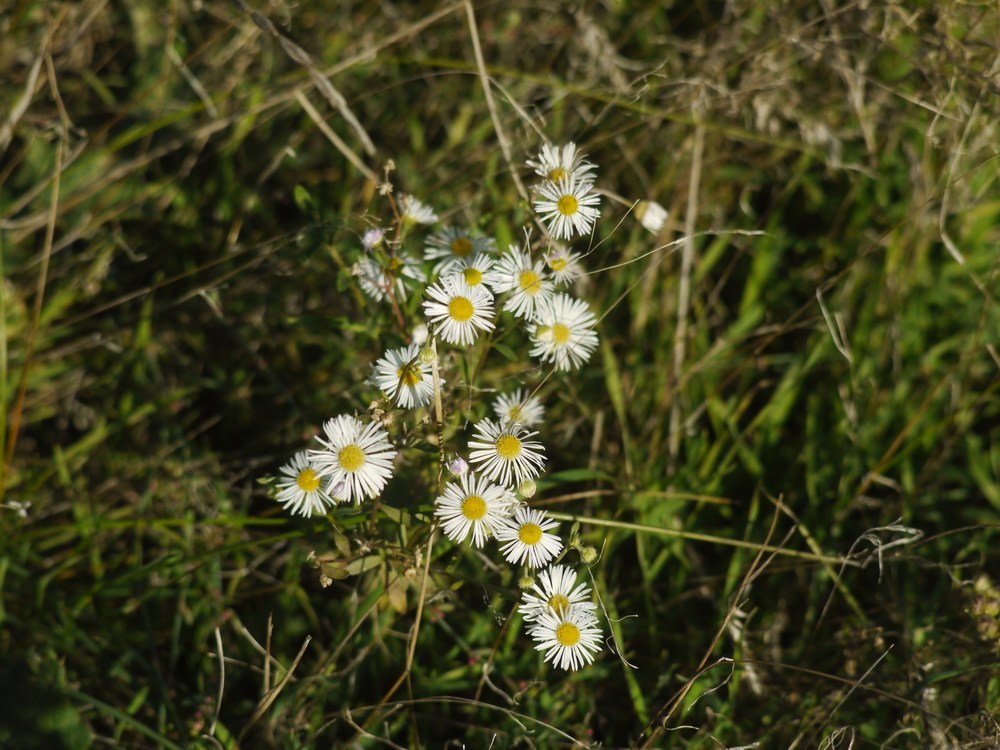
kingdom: Plantae
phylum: Tracheophyta
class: Magnoliopsida
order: Asterales
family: Asteraceae
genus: Erigeron
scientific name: Erigeron annuus
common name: Tall fleabane
